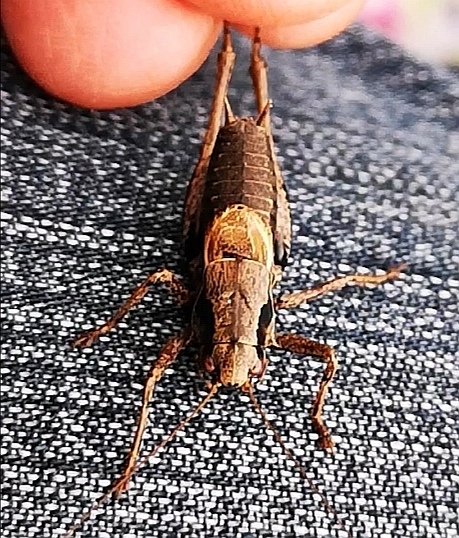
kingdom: Animalia
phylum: Arthropoda
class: Insecta
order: Orthoptera
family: Tettigoniidae
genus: Pholidoptera
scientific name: Pholidoptera griseoaptera
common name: Dark bush-cricket
